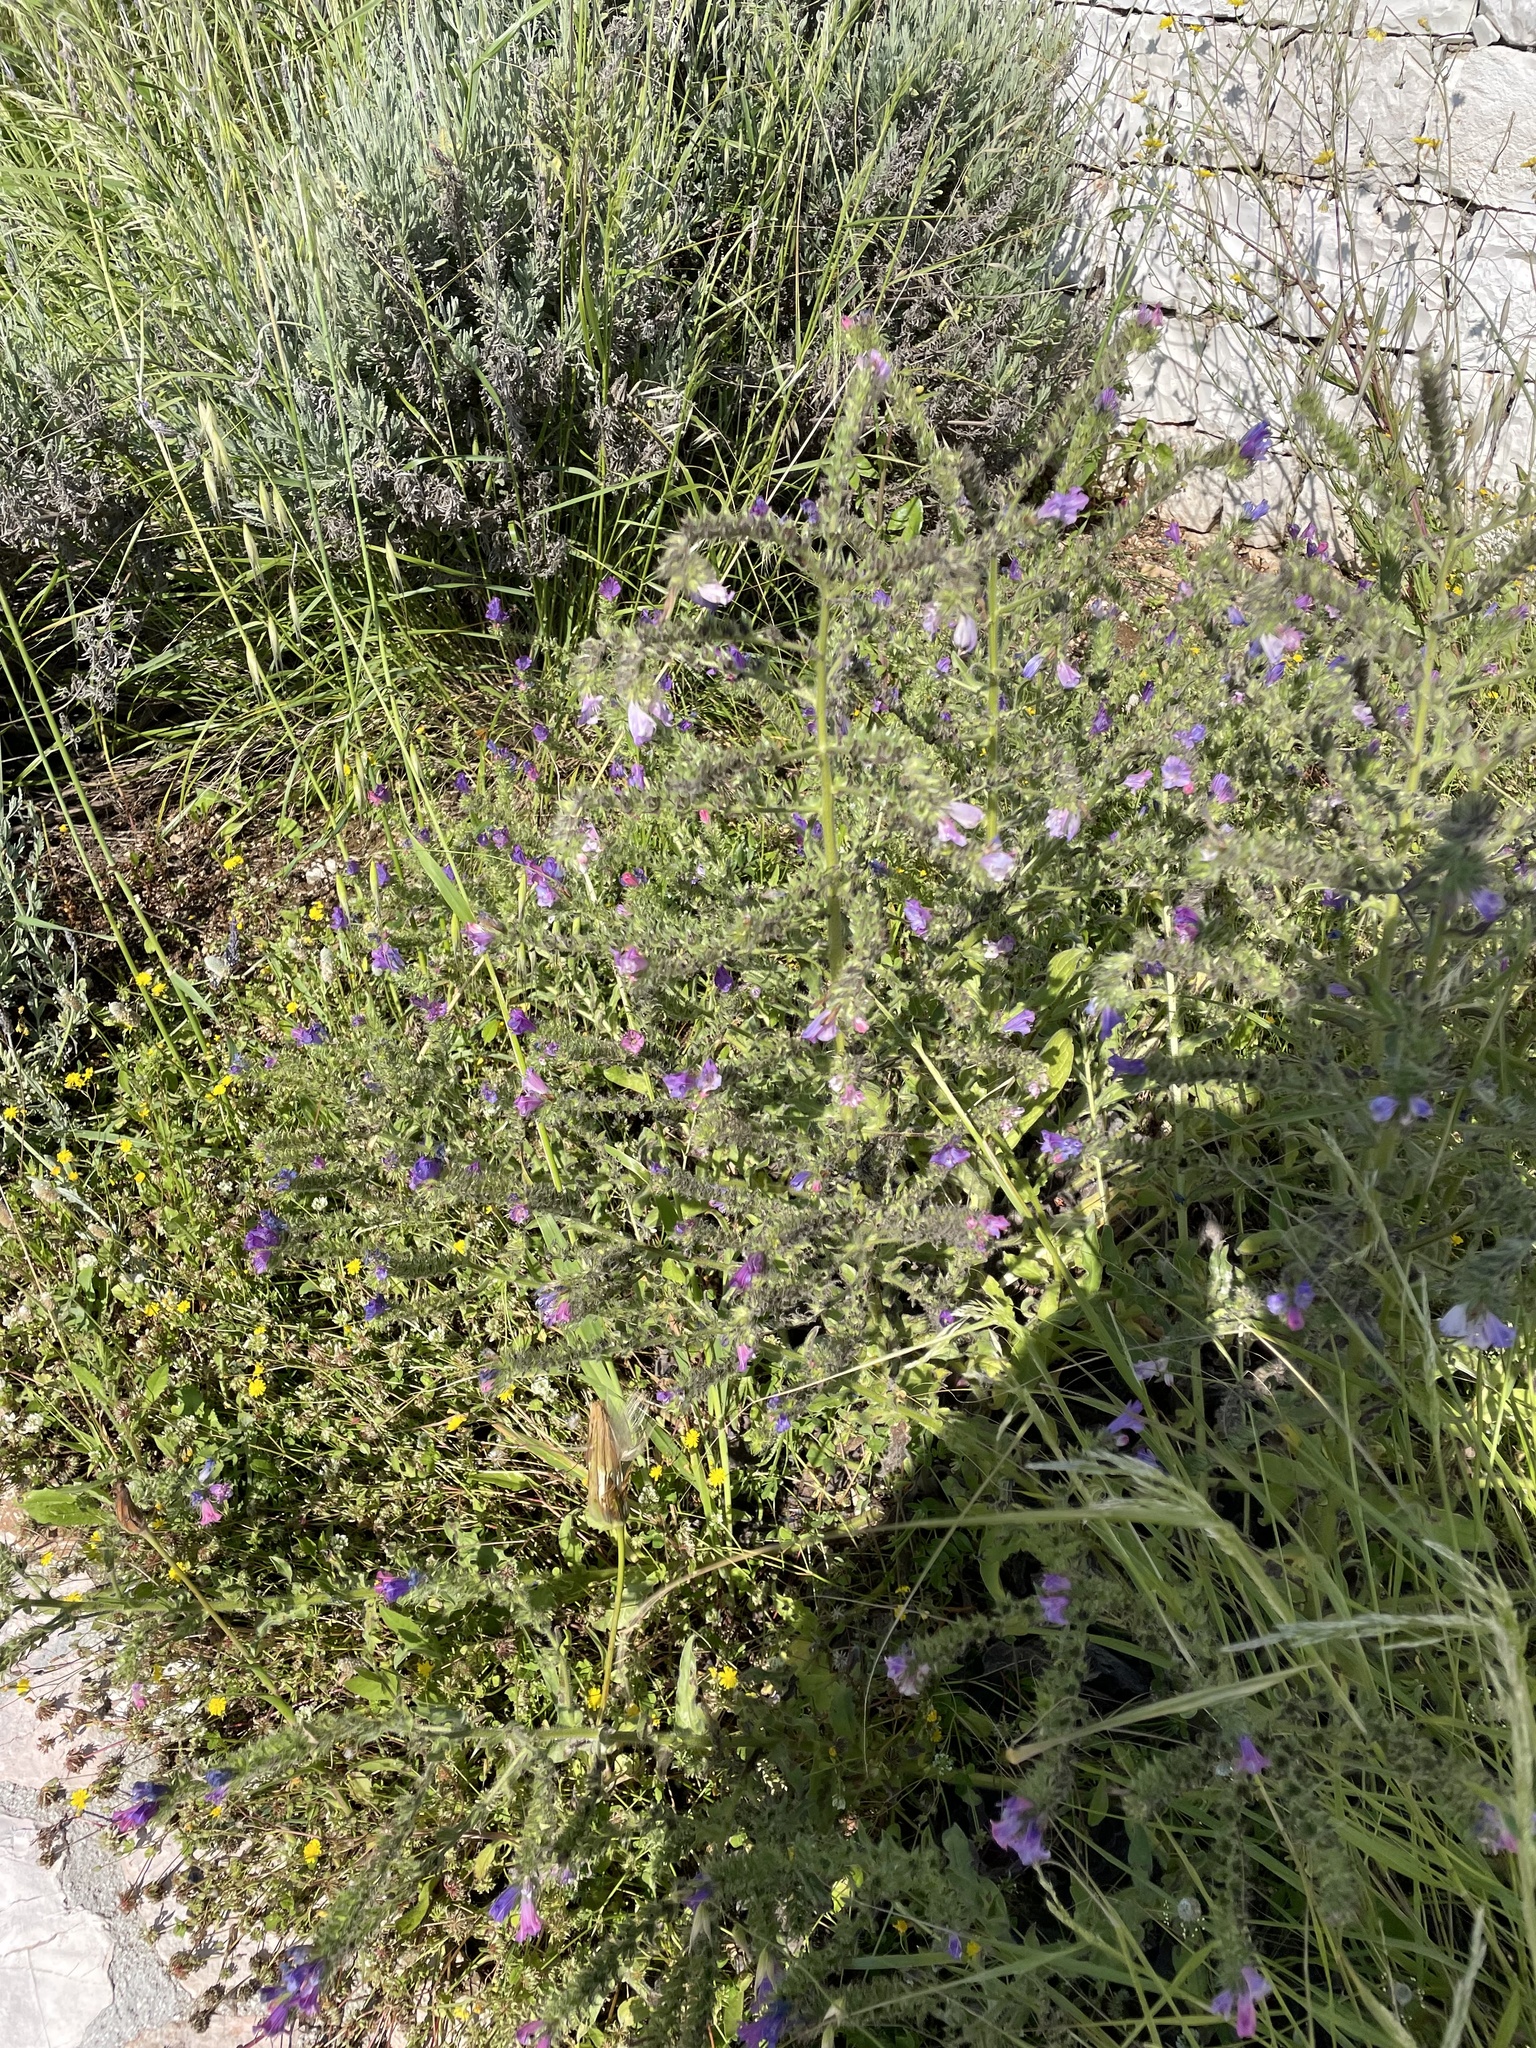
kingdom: Plantae
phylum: Tracheophyta
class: Magnoliopsida
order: Boraginales
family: Boraginaceae
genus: Echium
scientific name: Echium plantagineum
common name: Purple viper's-bugloss
